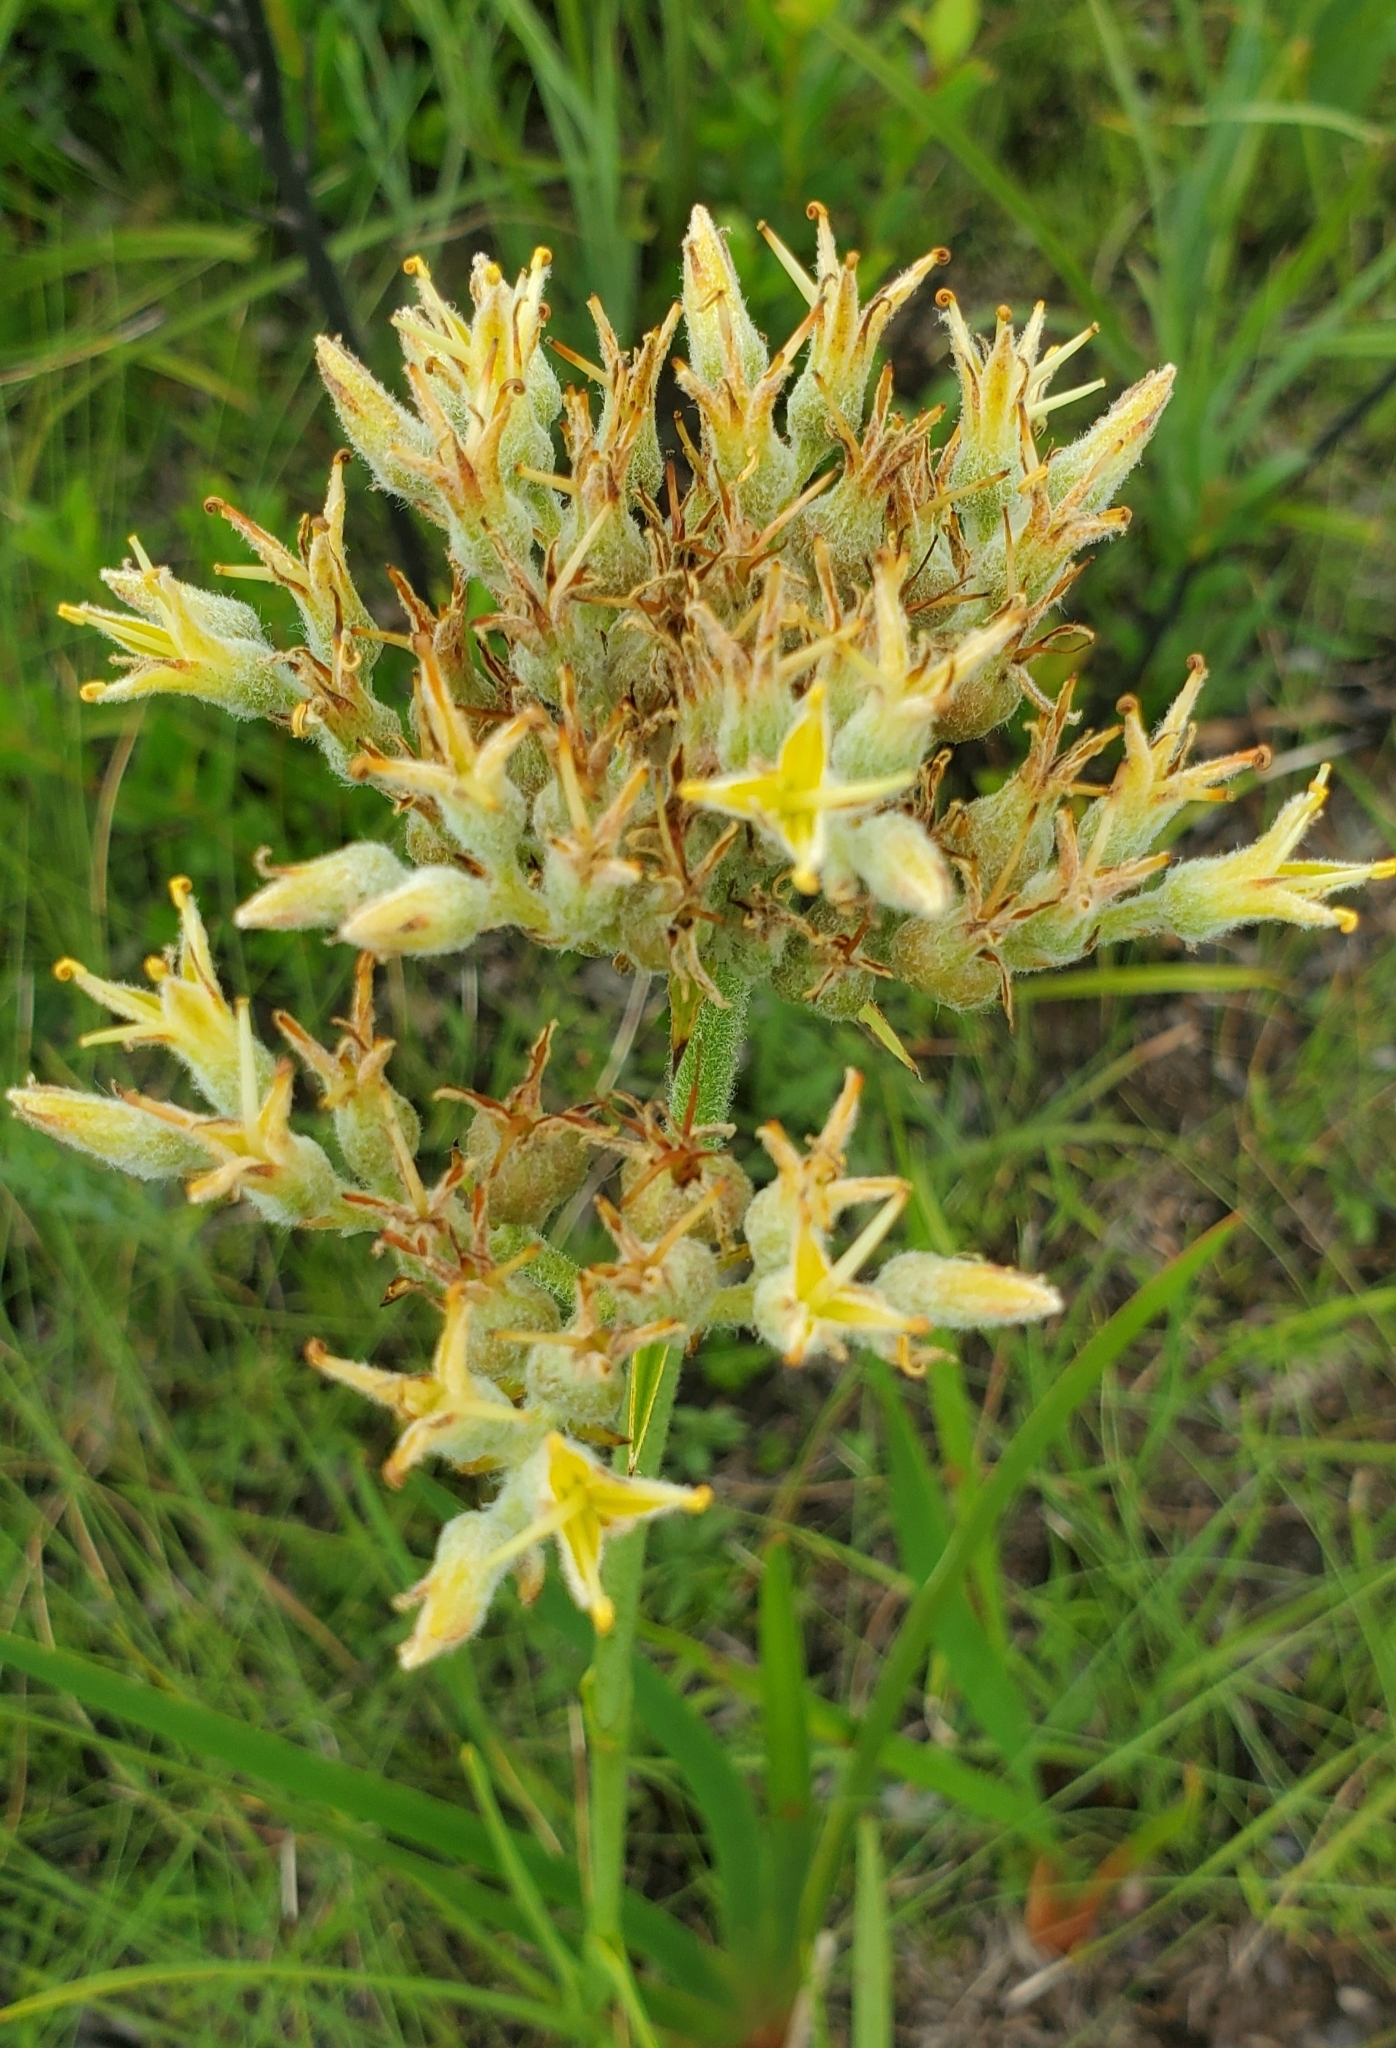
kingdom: Plantae
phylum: Tracheophyta
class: Liliopsida
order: Commelinales
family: Haemodoraceae
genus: Lachnanthes
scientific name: Lachnanthes caroliana
